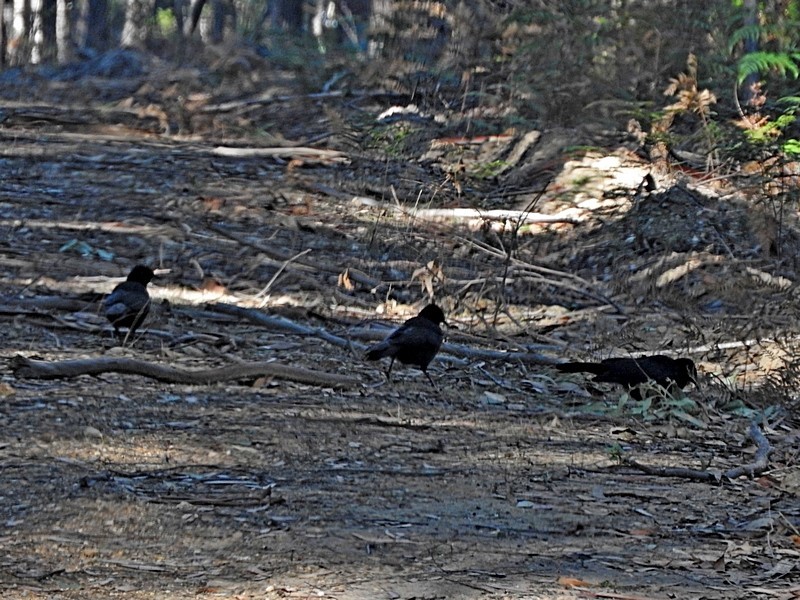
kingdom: Animalia
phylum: Chordata
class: Aves
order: Passeriformes
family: Corcoracidae
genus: Corcorax
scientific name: Corcorax melanoramphos
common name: White-winged chough
